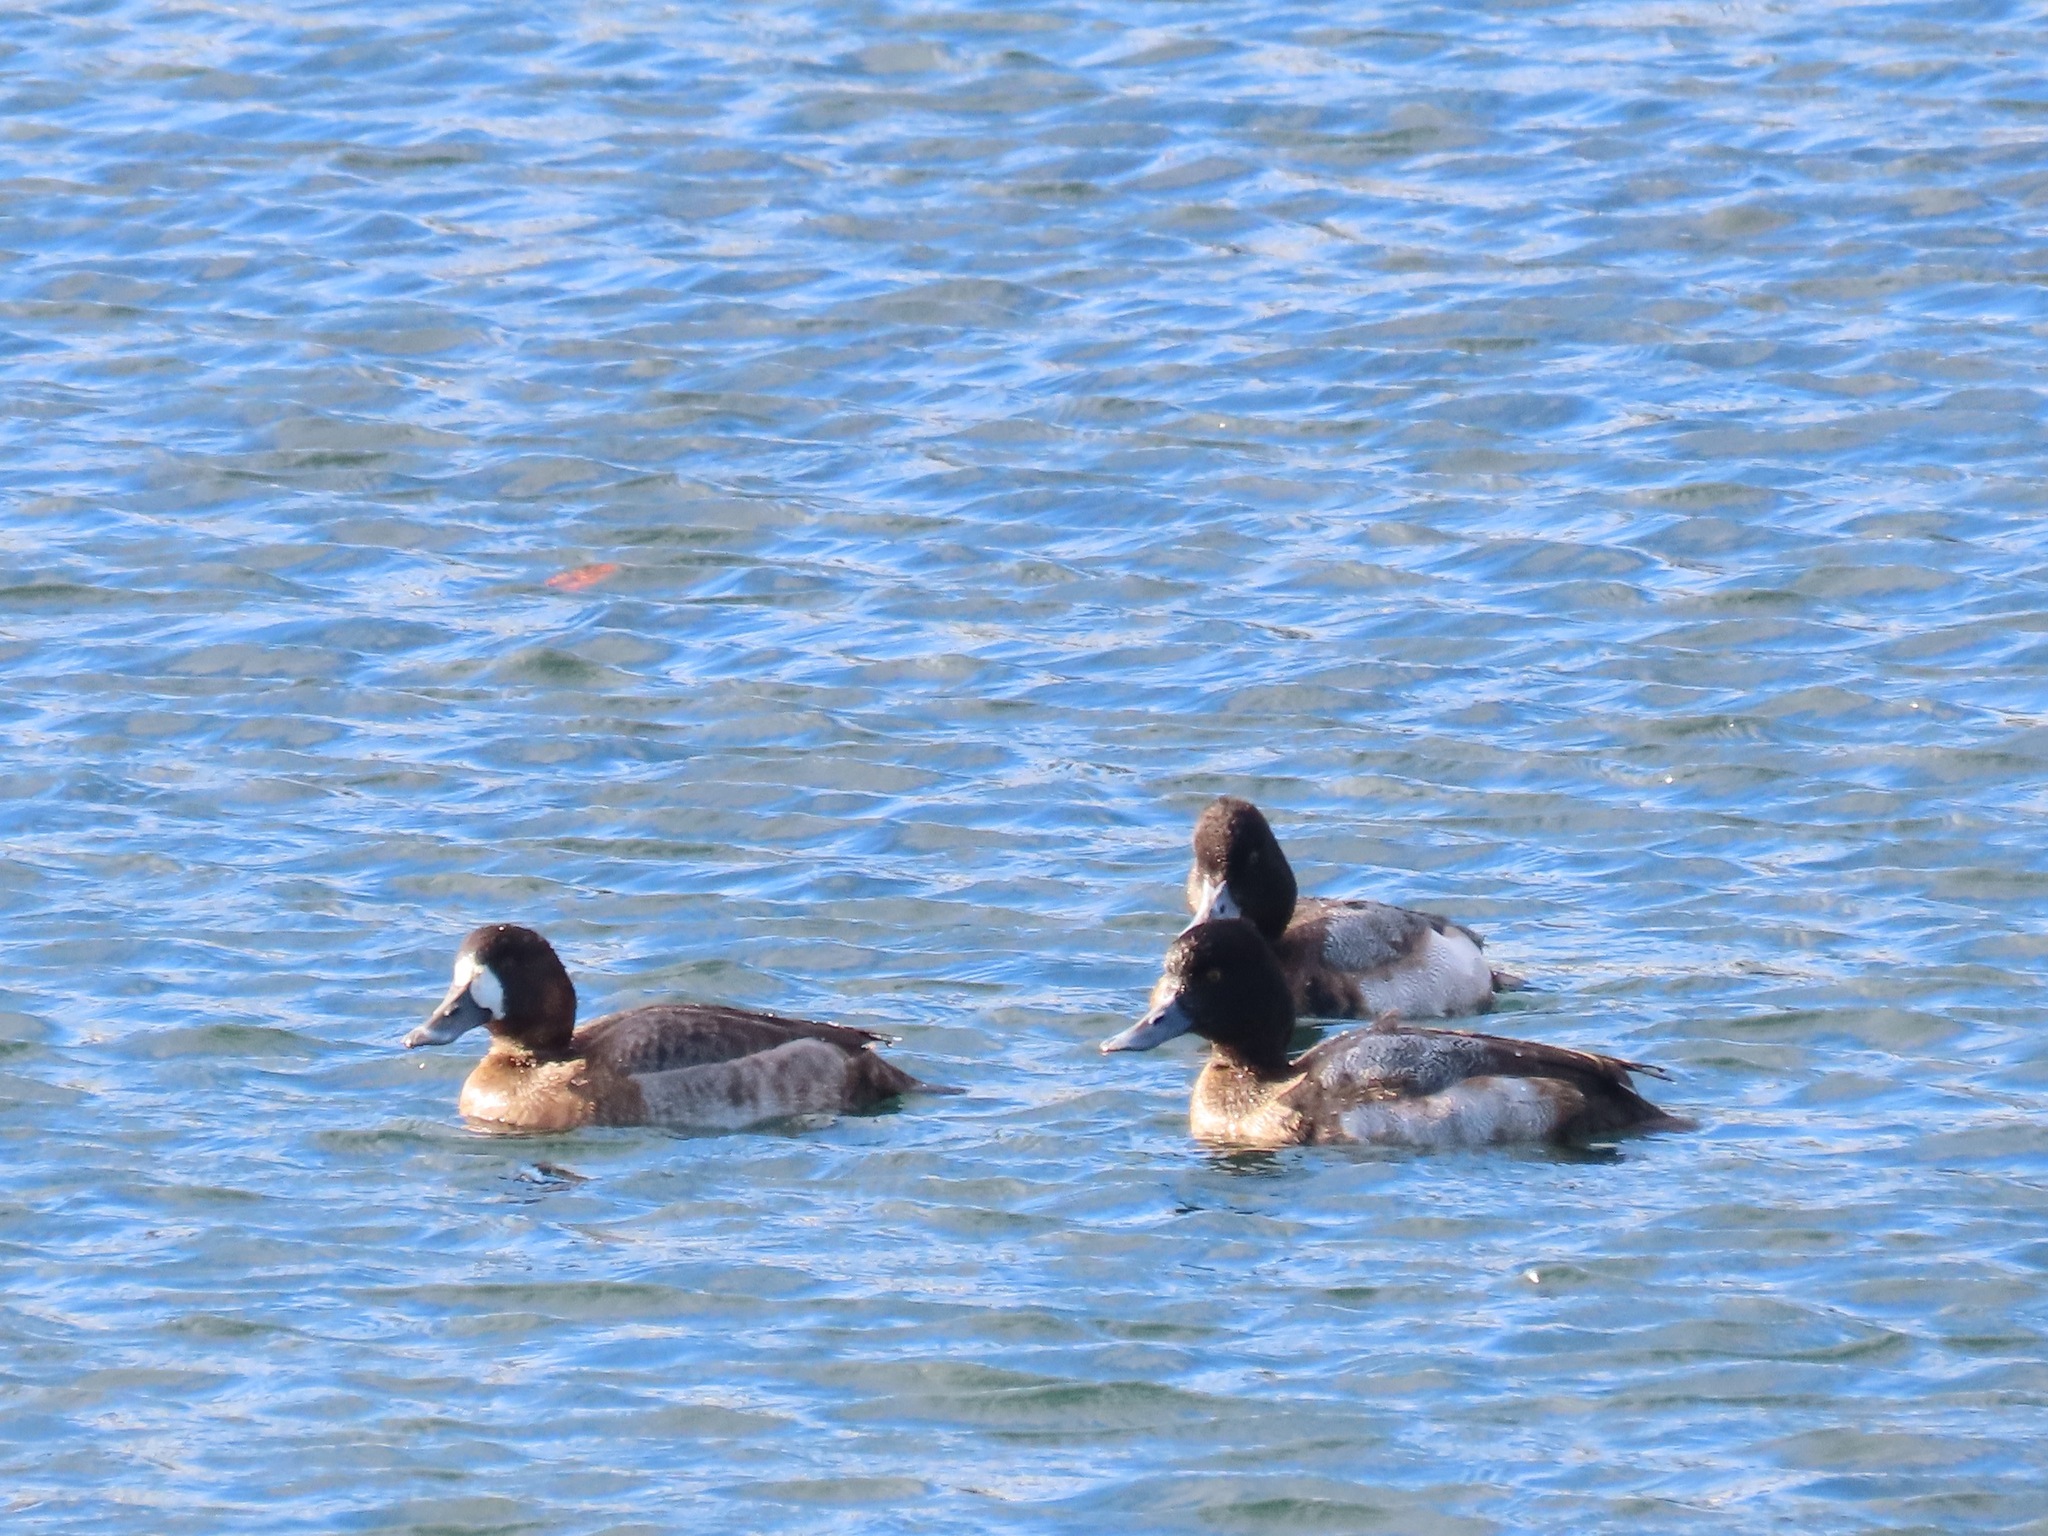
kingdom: Animalia
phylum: Chordata
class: Aves
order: Anseriformes
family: Anatidae
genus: Aythya
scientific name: Aythya marila
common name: Greater scaup
